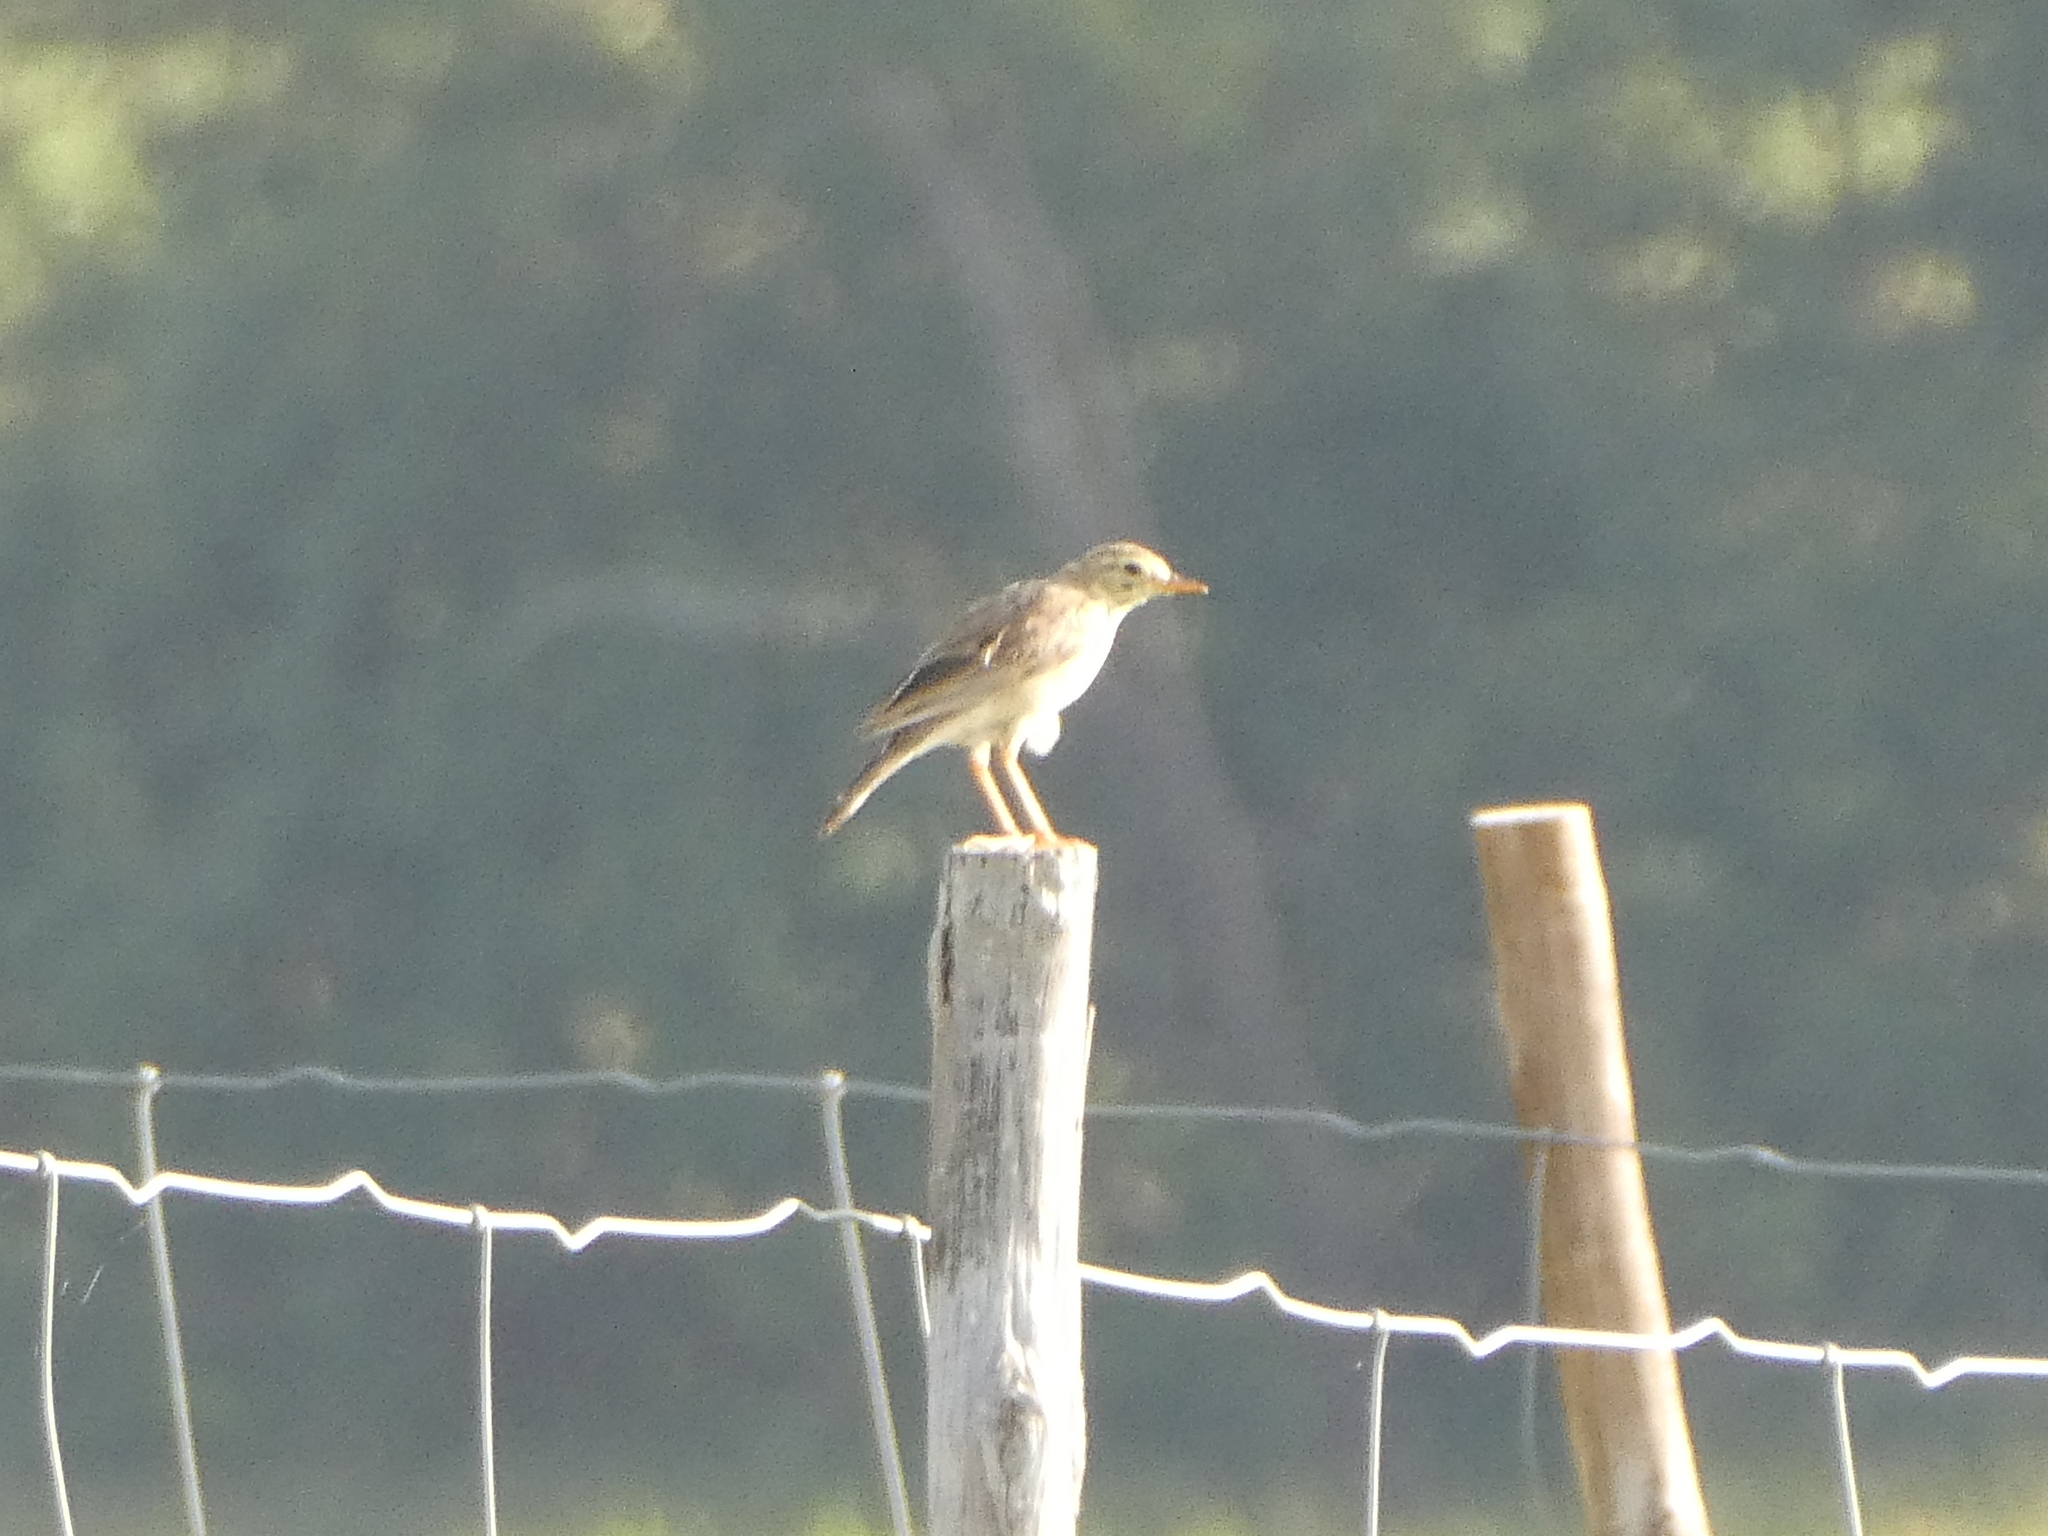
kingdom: Animalia
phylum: Chordata
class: Aves
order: Passeriformes
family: Motacillidae
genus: Anthus
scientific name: Anthus cinnamomeus
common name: African pipit
